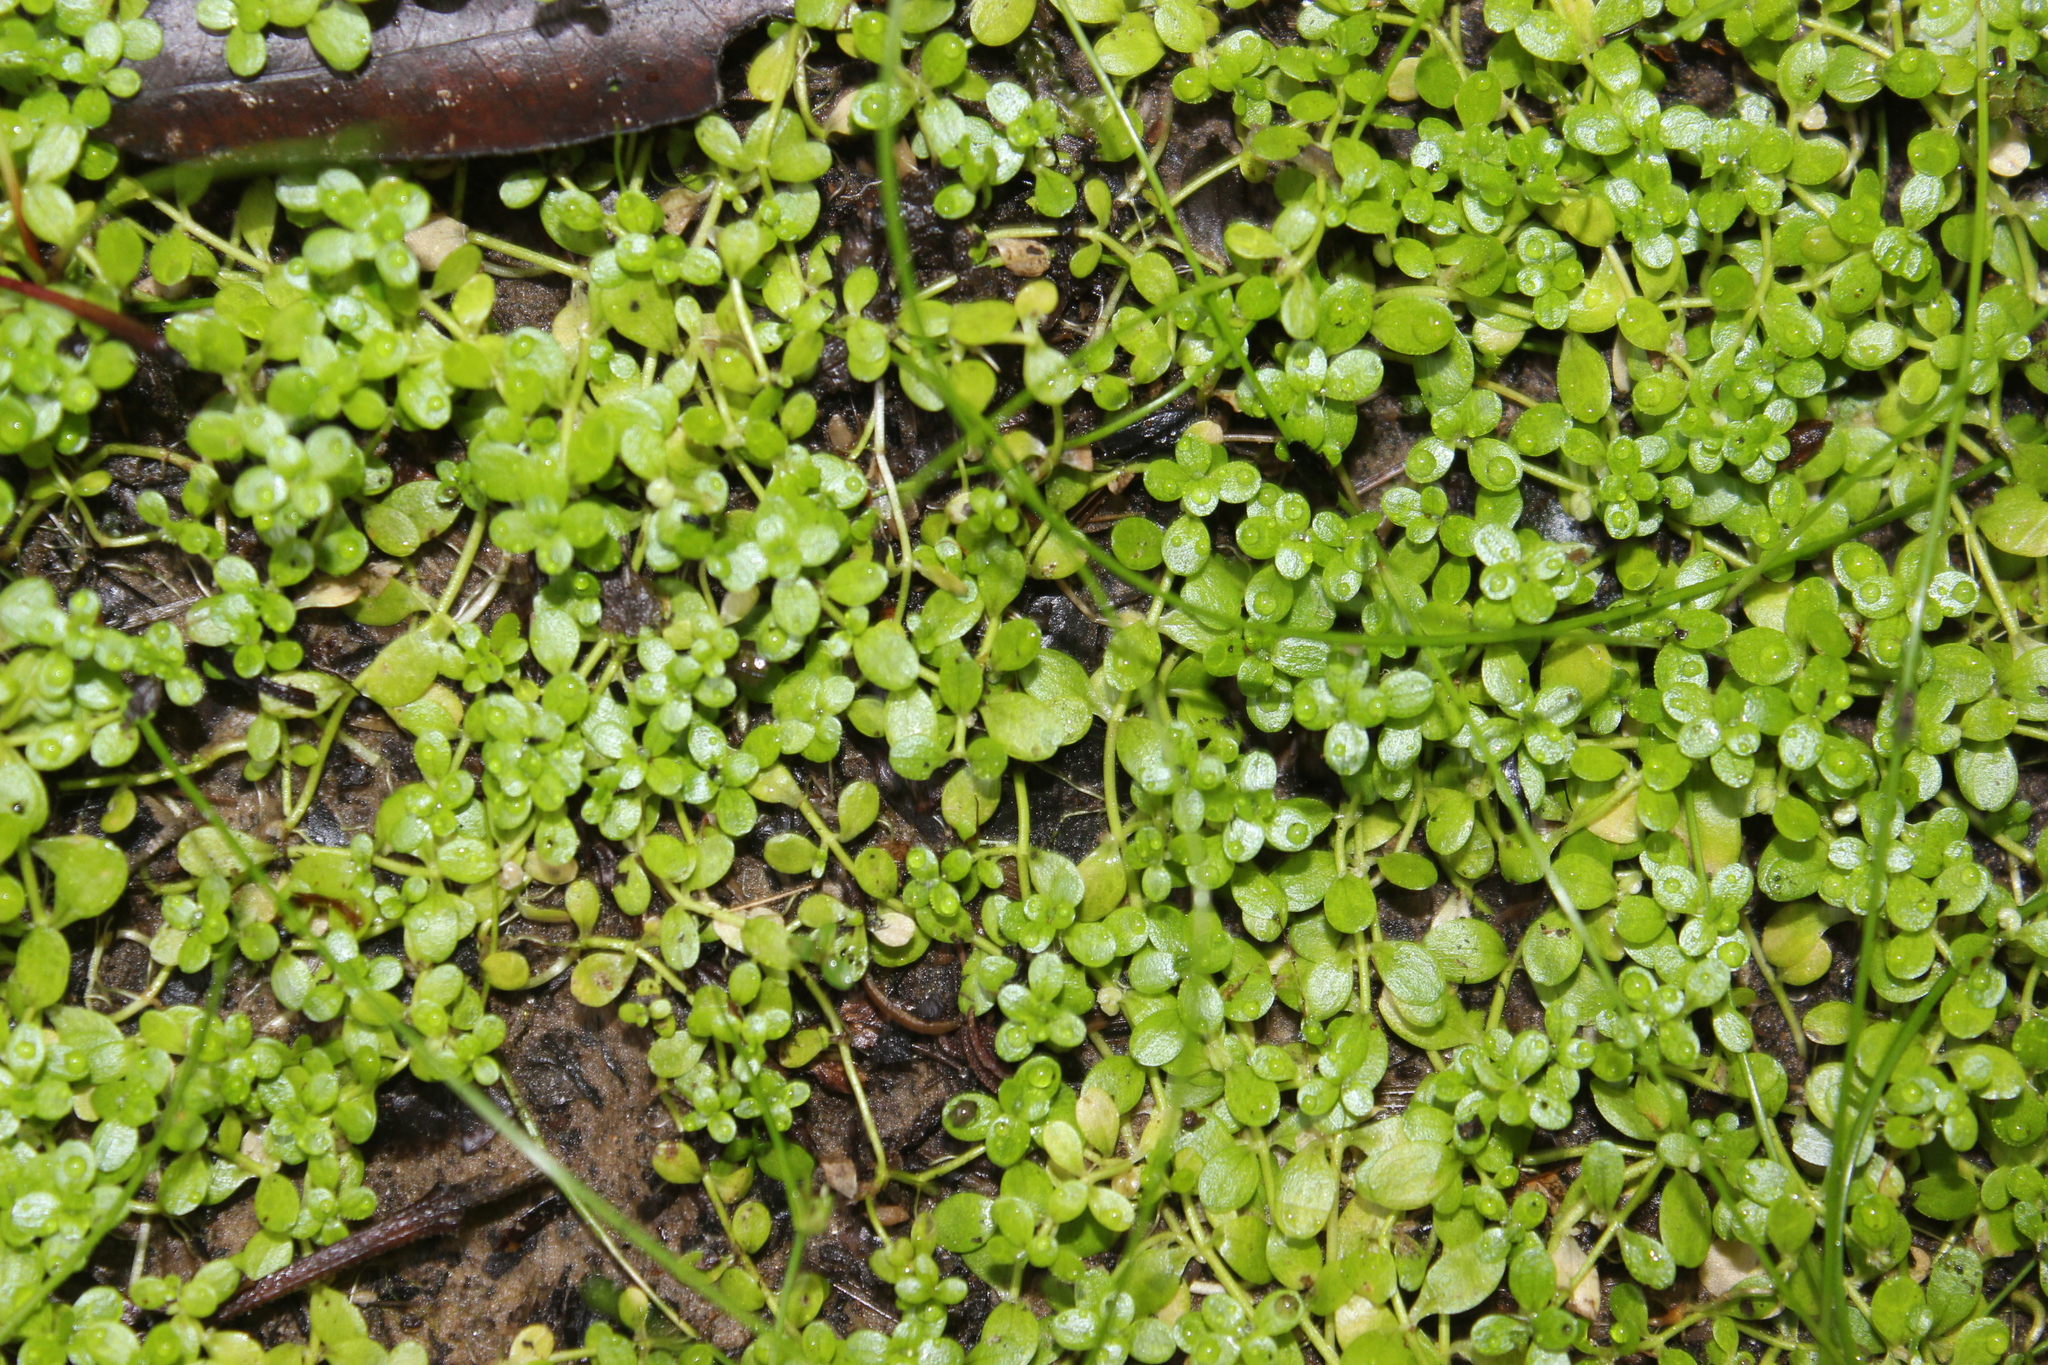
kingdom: Plantae
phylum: Tracheophyta
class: Magnoliopsida
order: Lamiales
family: Plantaginaceae
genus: Callitriche
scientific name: Callitriche stagnalis
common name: Common water-starwort
